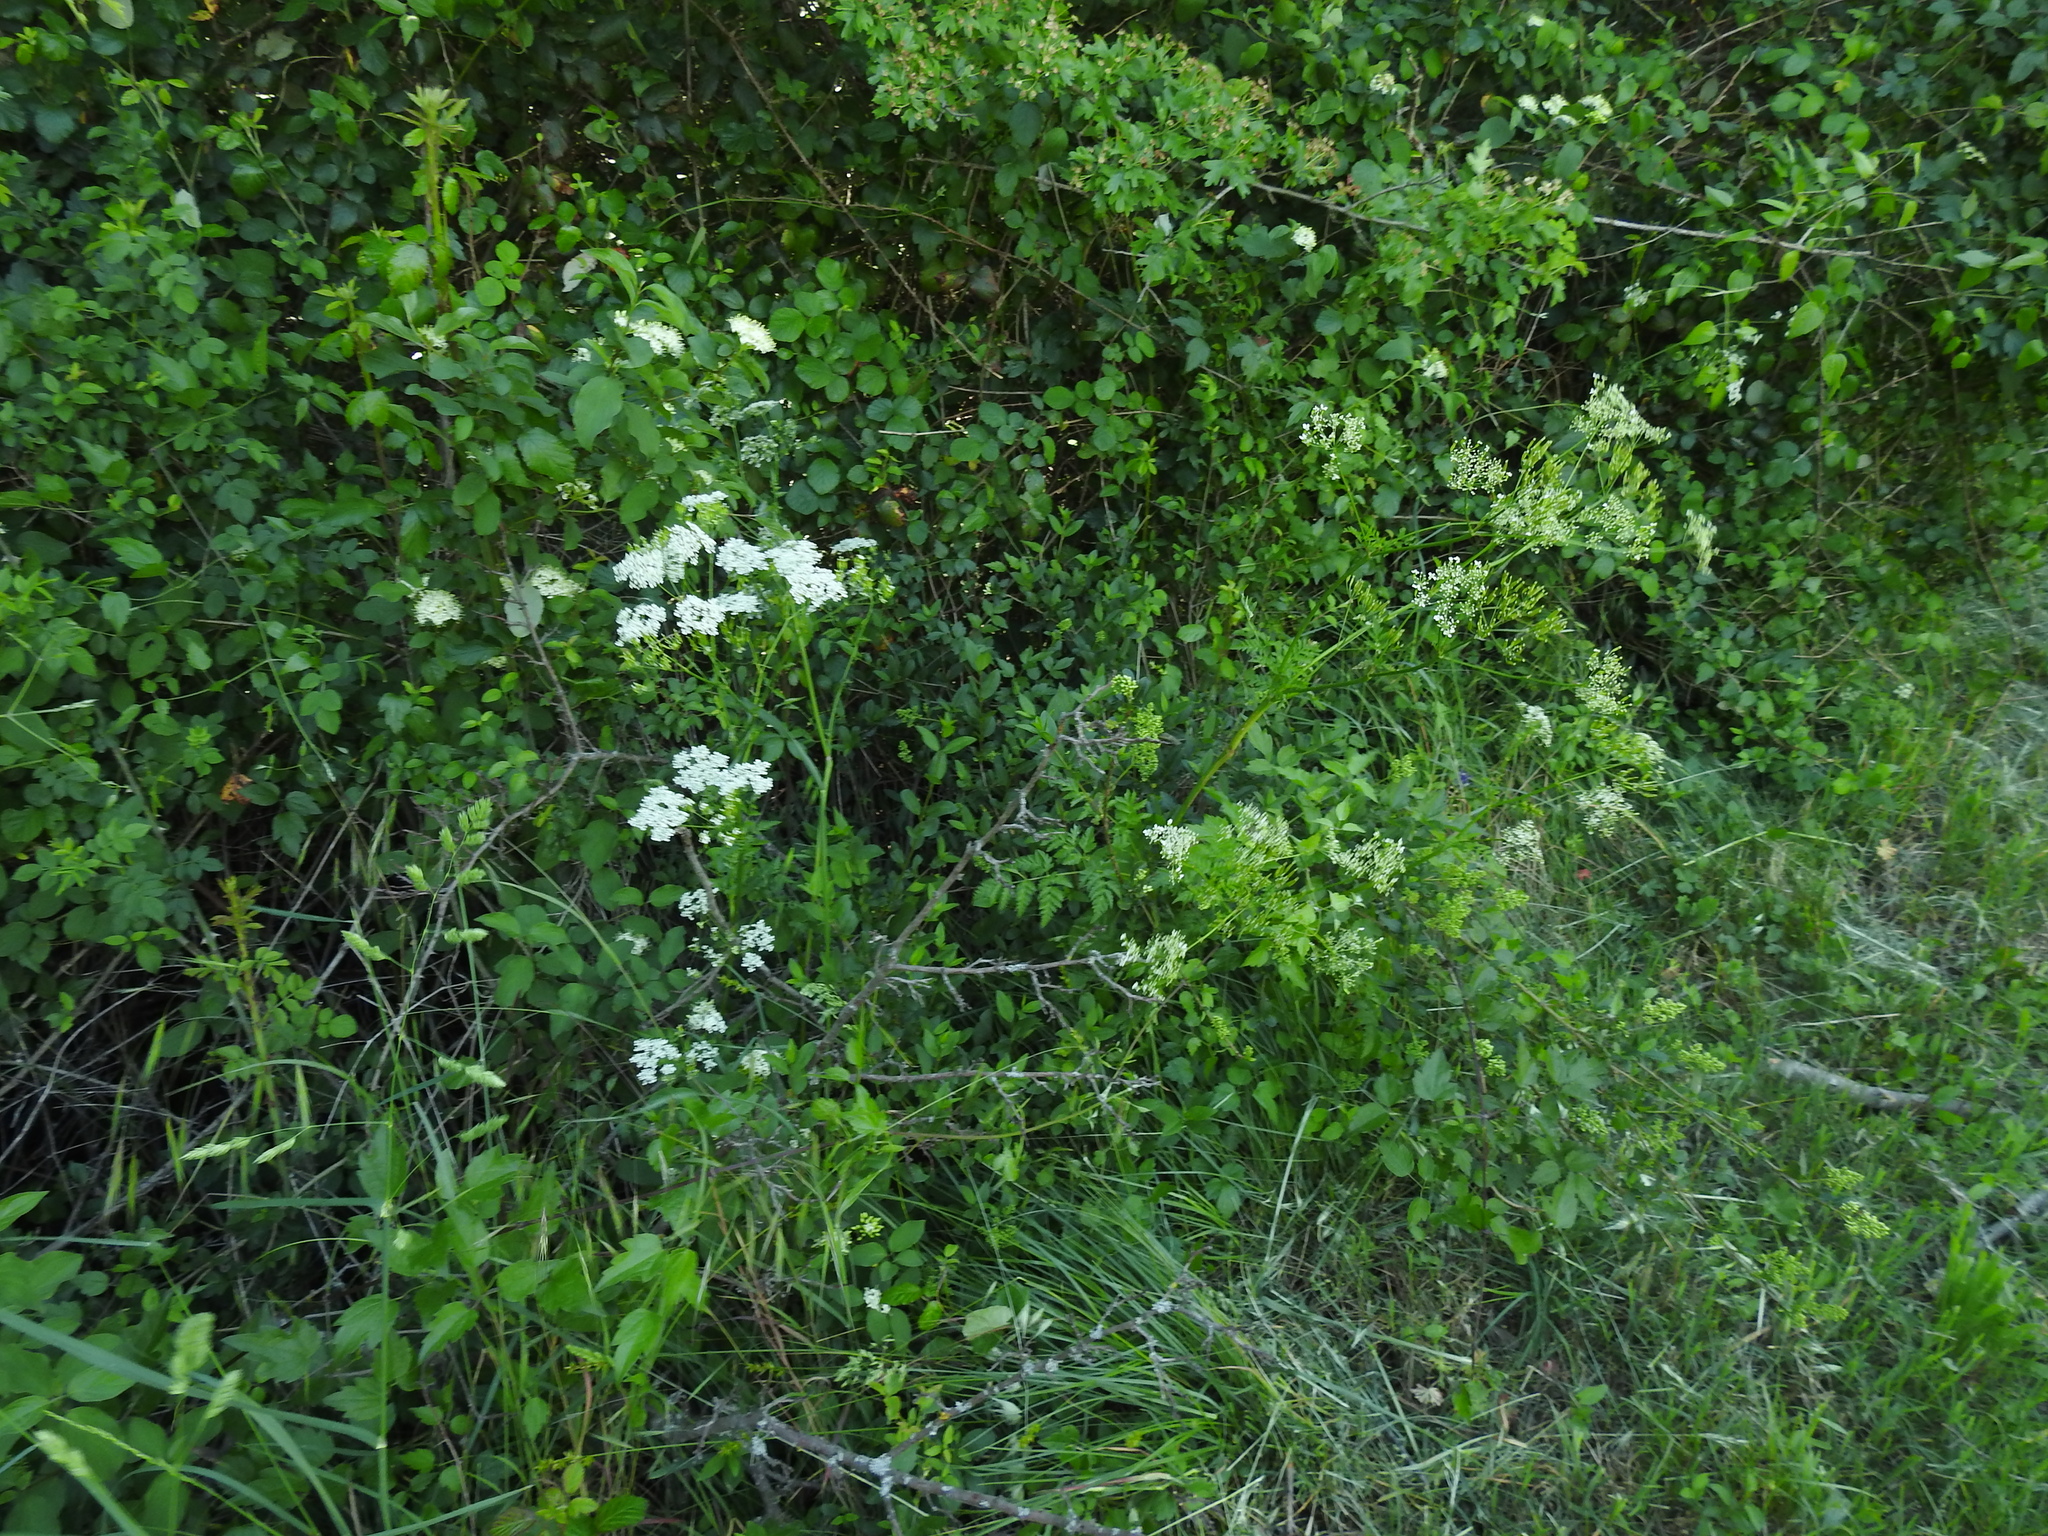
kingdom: Plantae
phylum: Tracheophyta
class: Magnoliopsida
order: Apiales
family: Apiaceae
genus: Anthriscus
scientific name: Anthriscus sylvestris
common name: Cow parsley
